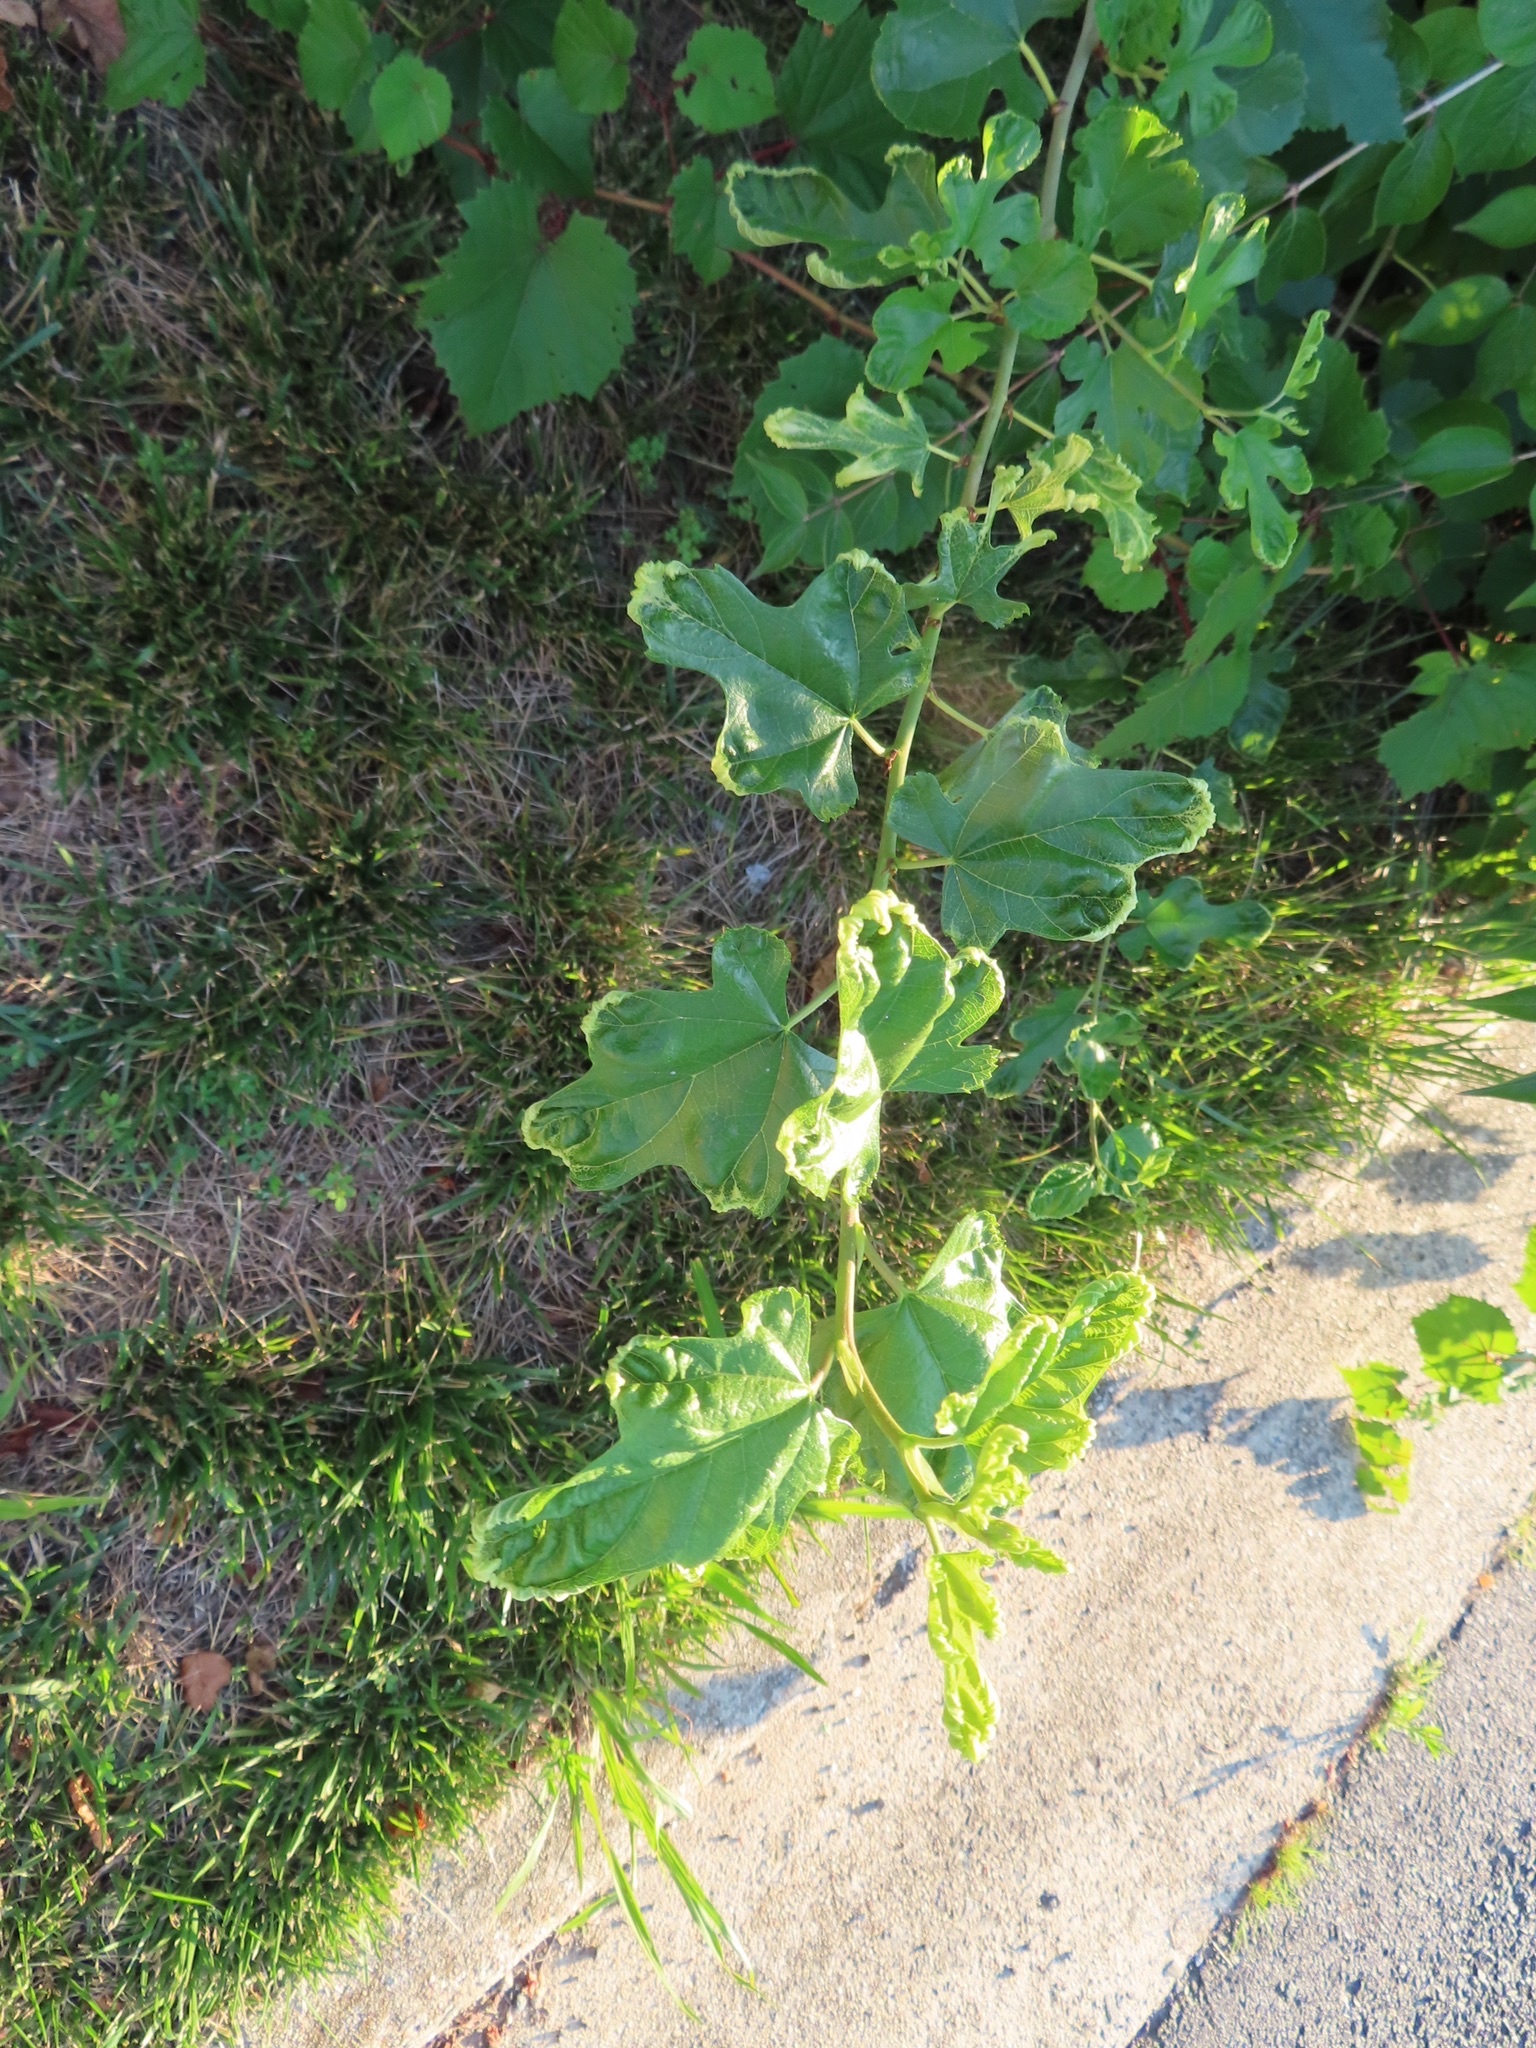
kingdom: Plantae
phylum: Tracheophyta
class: Magnoliopsida
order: Rosales
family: Moraceae
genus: Morus
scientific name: Morus alba
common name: White mulberry
